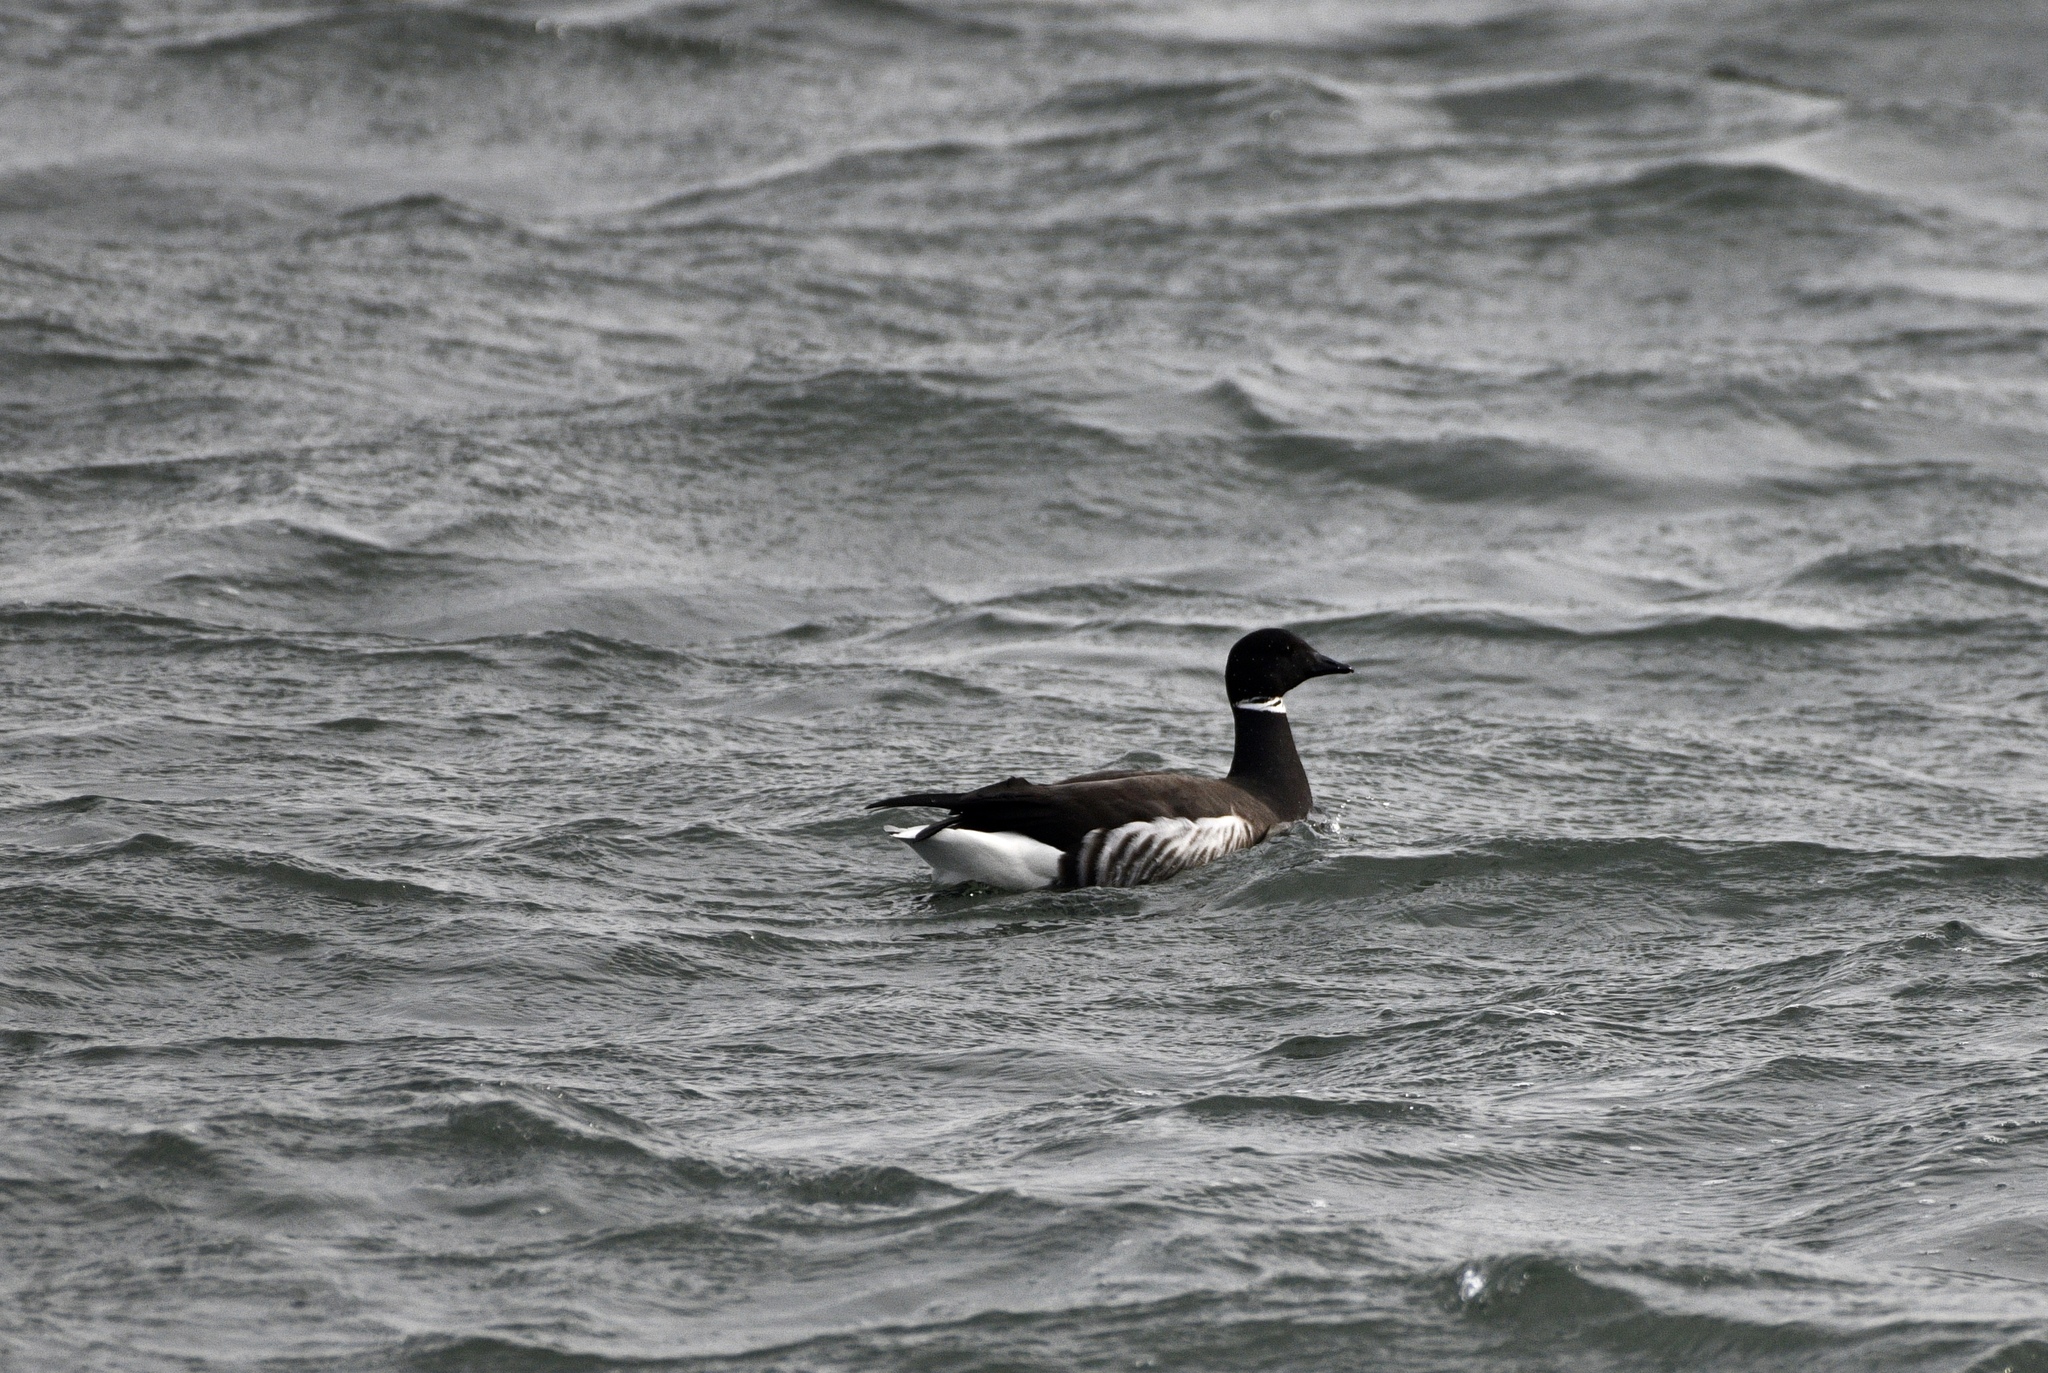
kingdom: Animalia
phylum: Chordata
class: Aves
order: Anseriformes
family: Anatidae
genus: Branta
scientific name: Branta bernicla
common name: Brant goose
